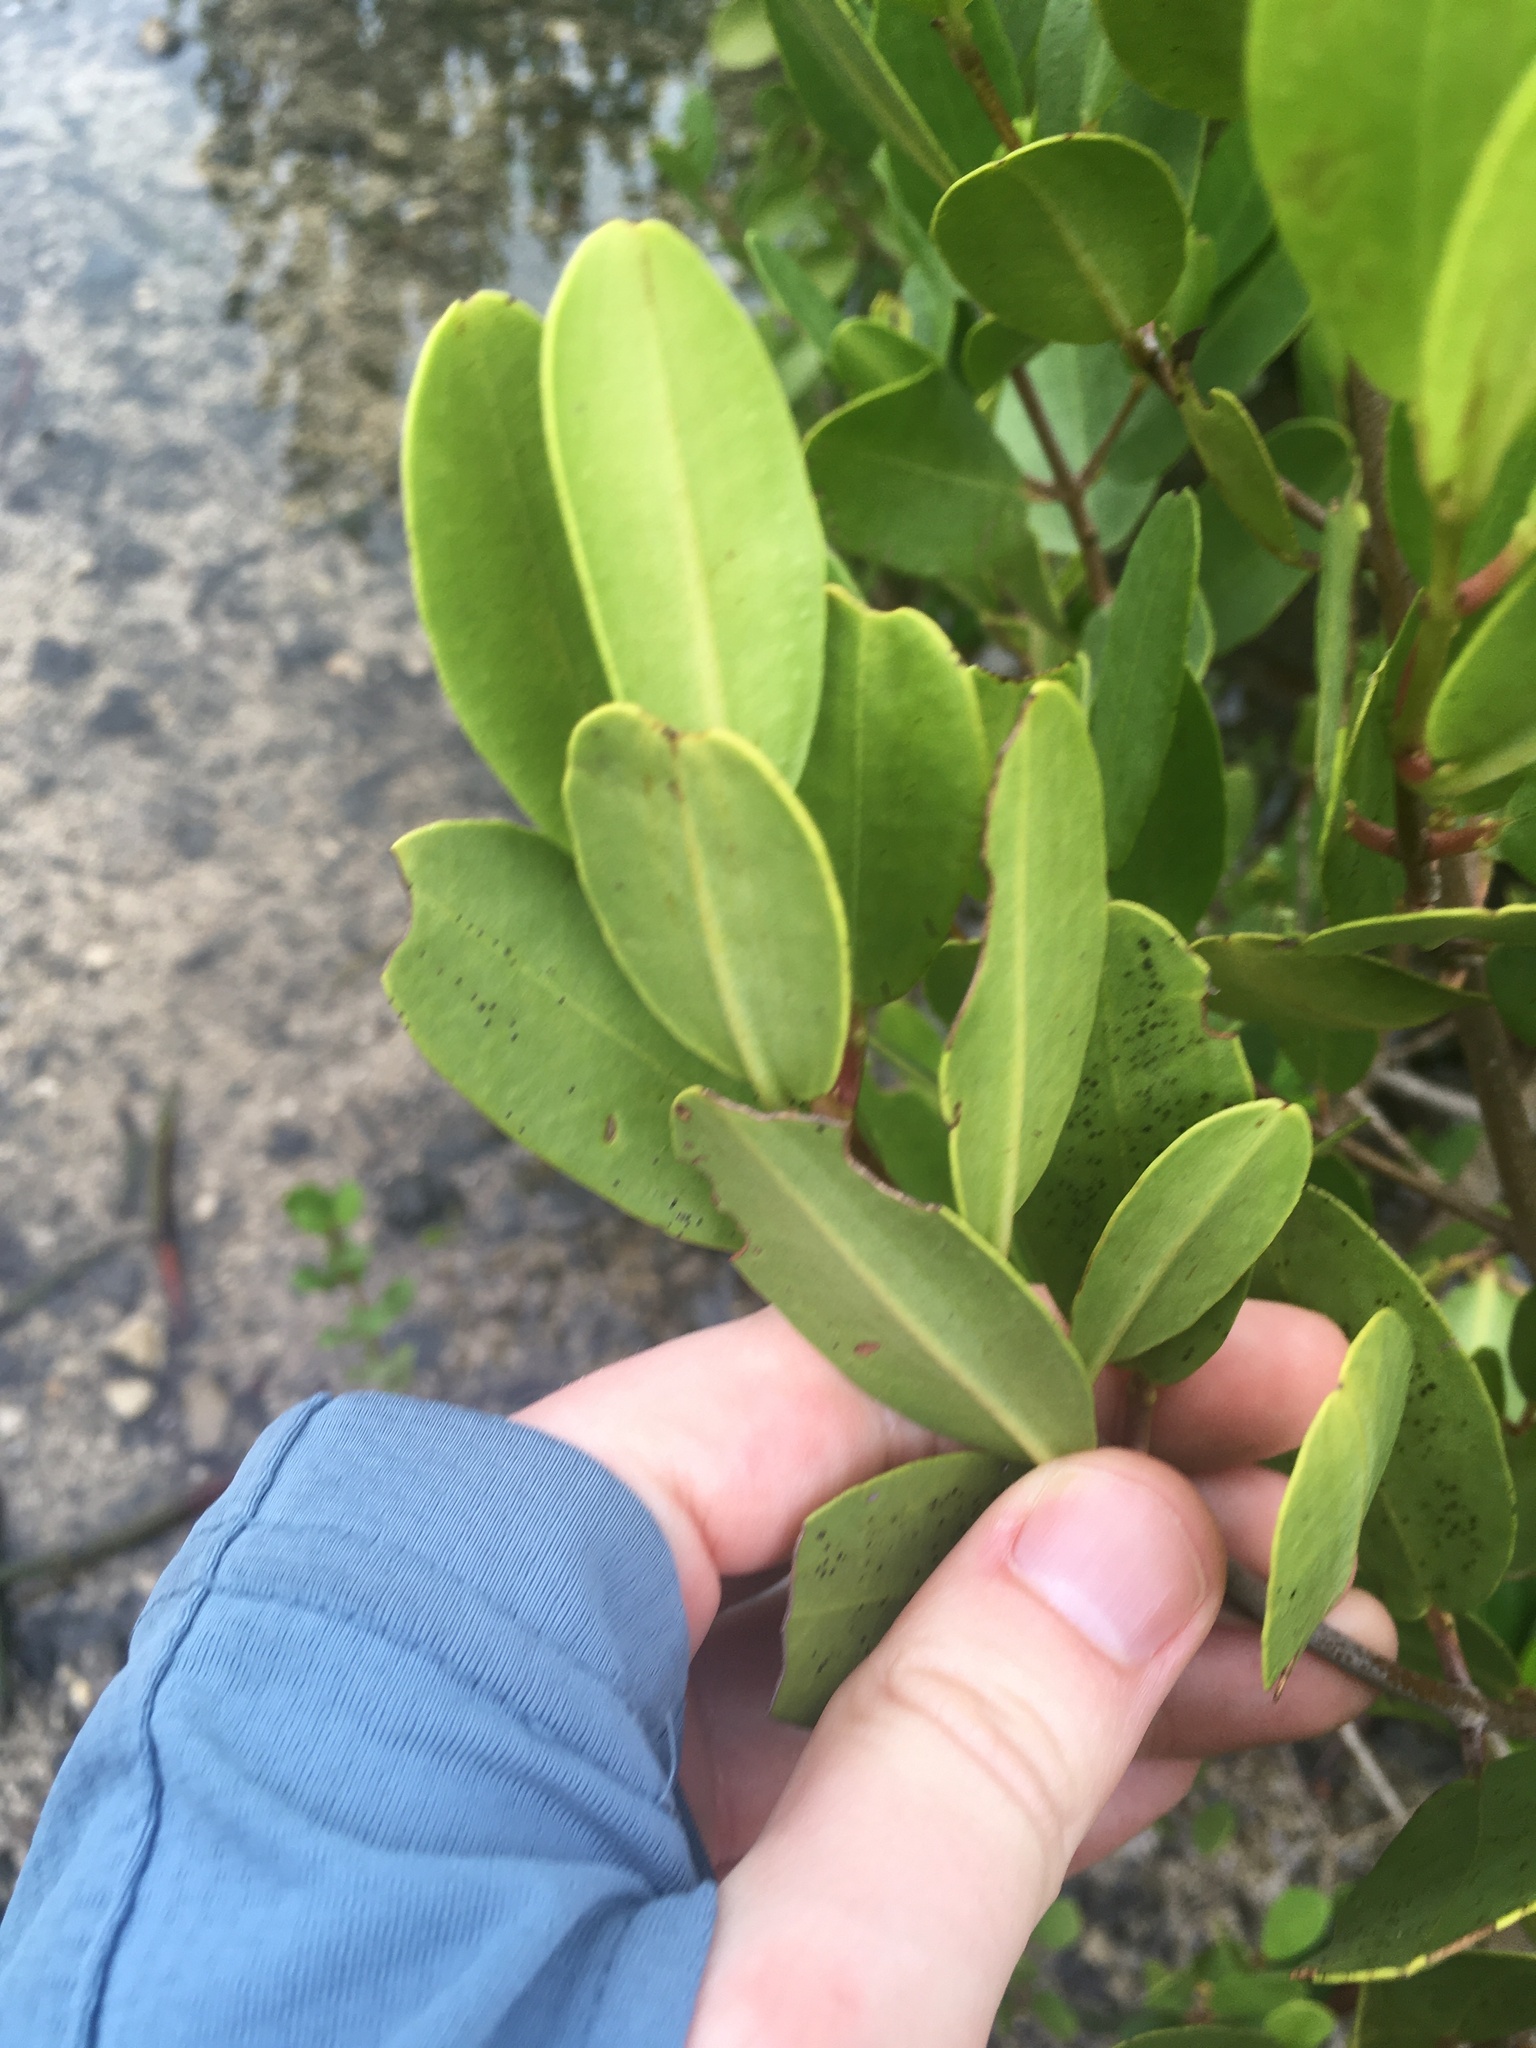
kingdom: Plantae
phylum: Tracheophyta
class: Magnoliopsida
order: Myrtales
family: Combretaceae
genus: Laguncularia
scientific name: Laguncularia racemosa
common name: White mangrove
